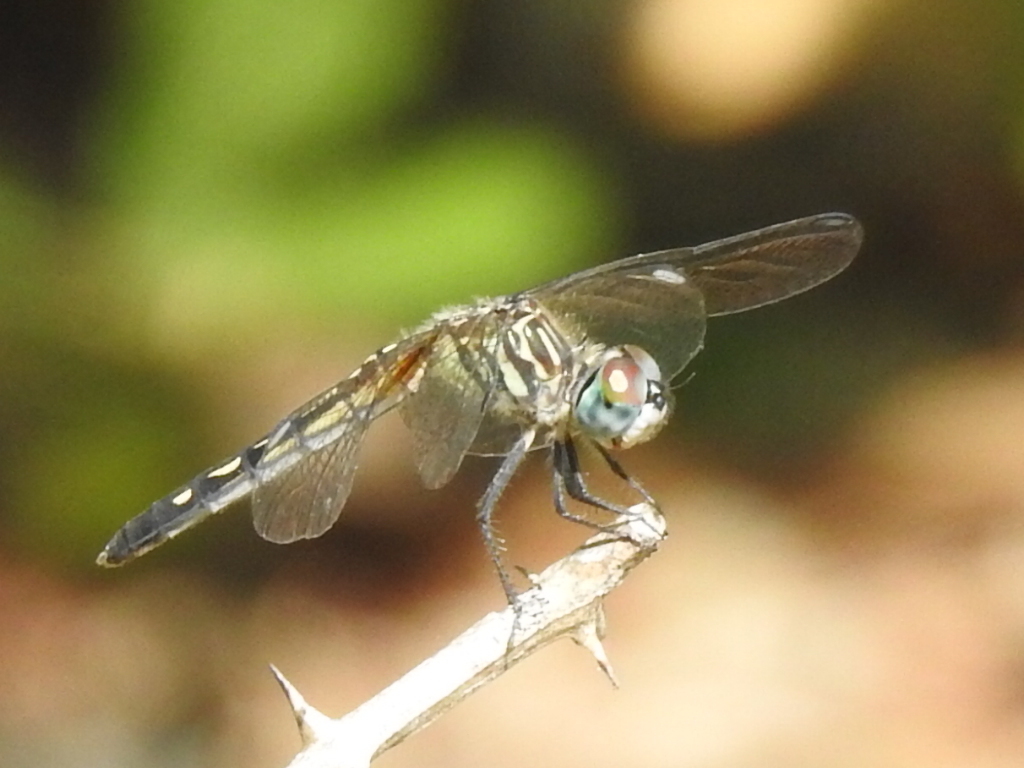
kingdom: Animalia
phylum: Arthropoda
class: Insecta
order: Odonata
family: Libellulidae
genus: Pachydiplax
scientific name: Pachydiplax longipennis
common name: Blue dasher
